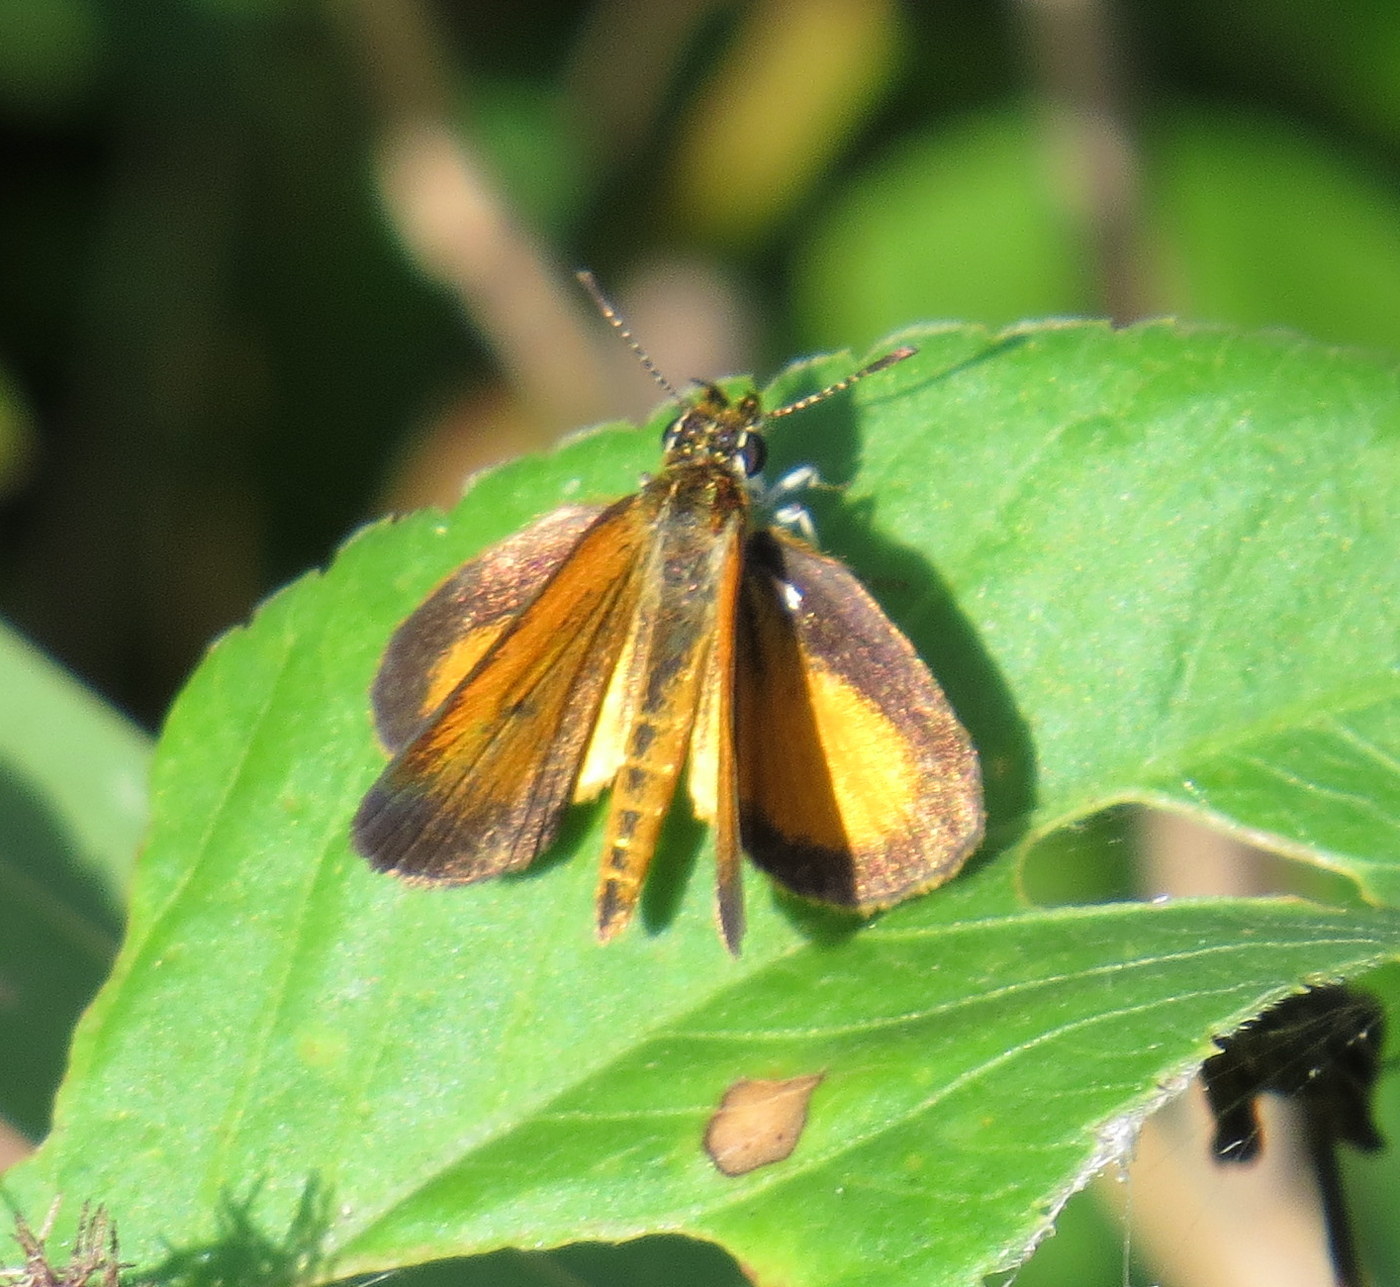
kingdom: Animalia
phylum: Arthropoda
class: Insecta
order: Lepidoptera
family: Hesperiidae
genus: Ancyloxypha
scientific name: Ancyloxypha numitor
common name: Least skipper
